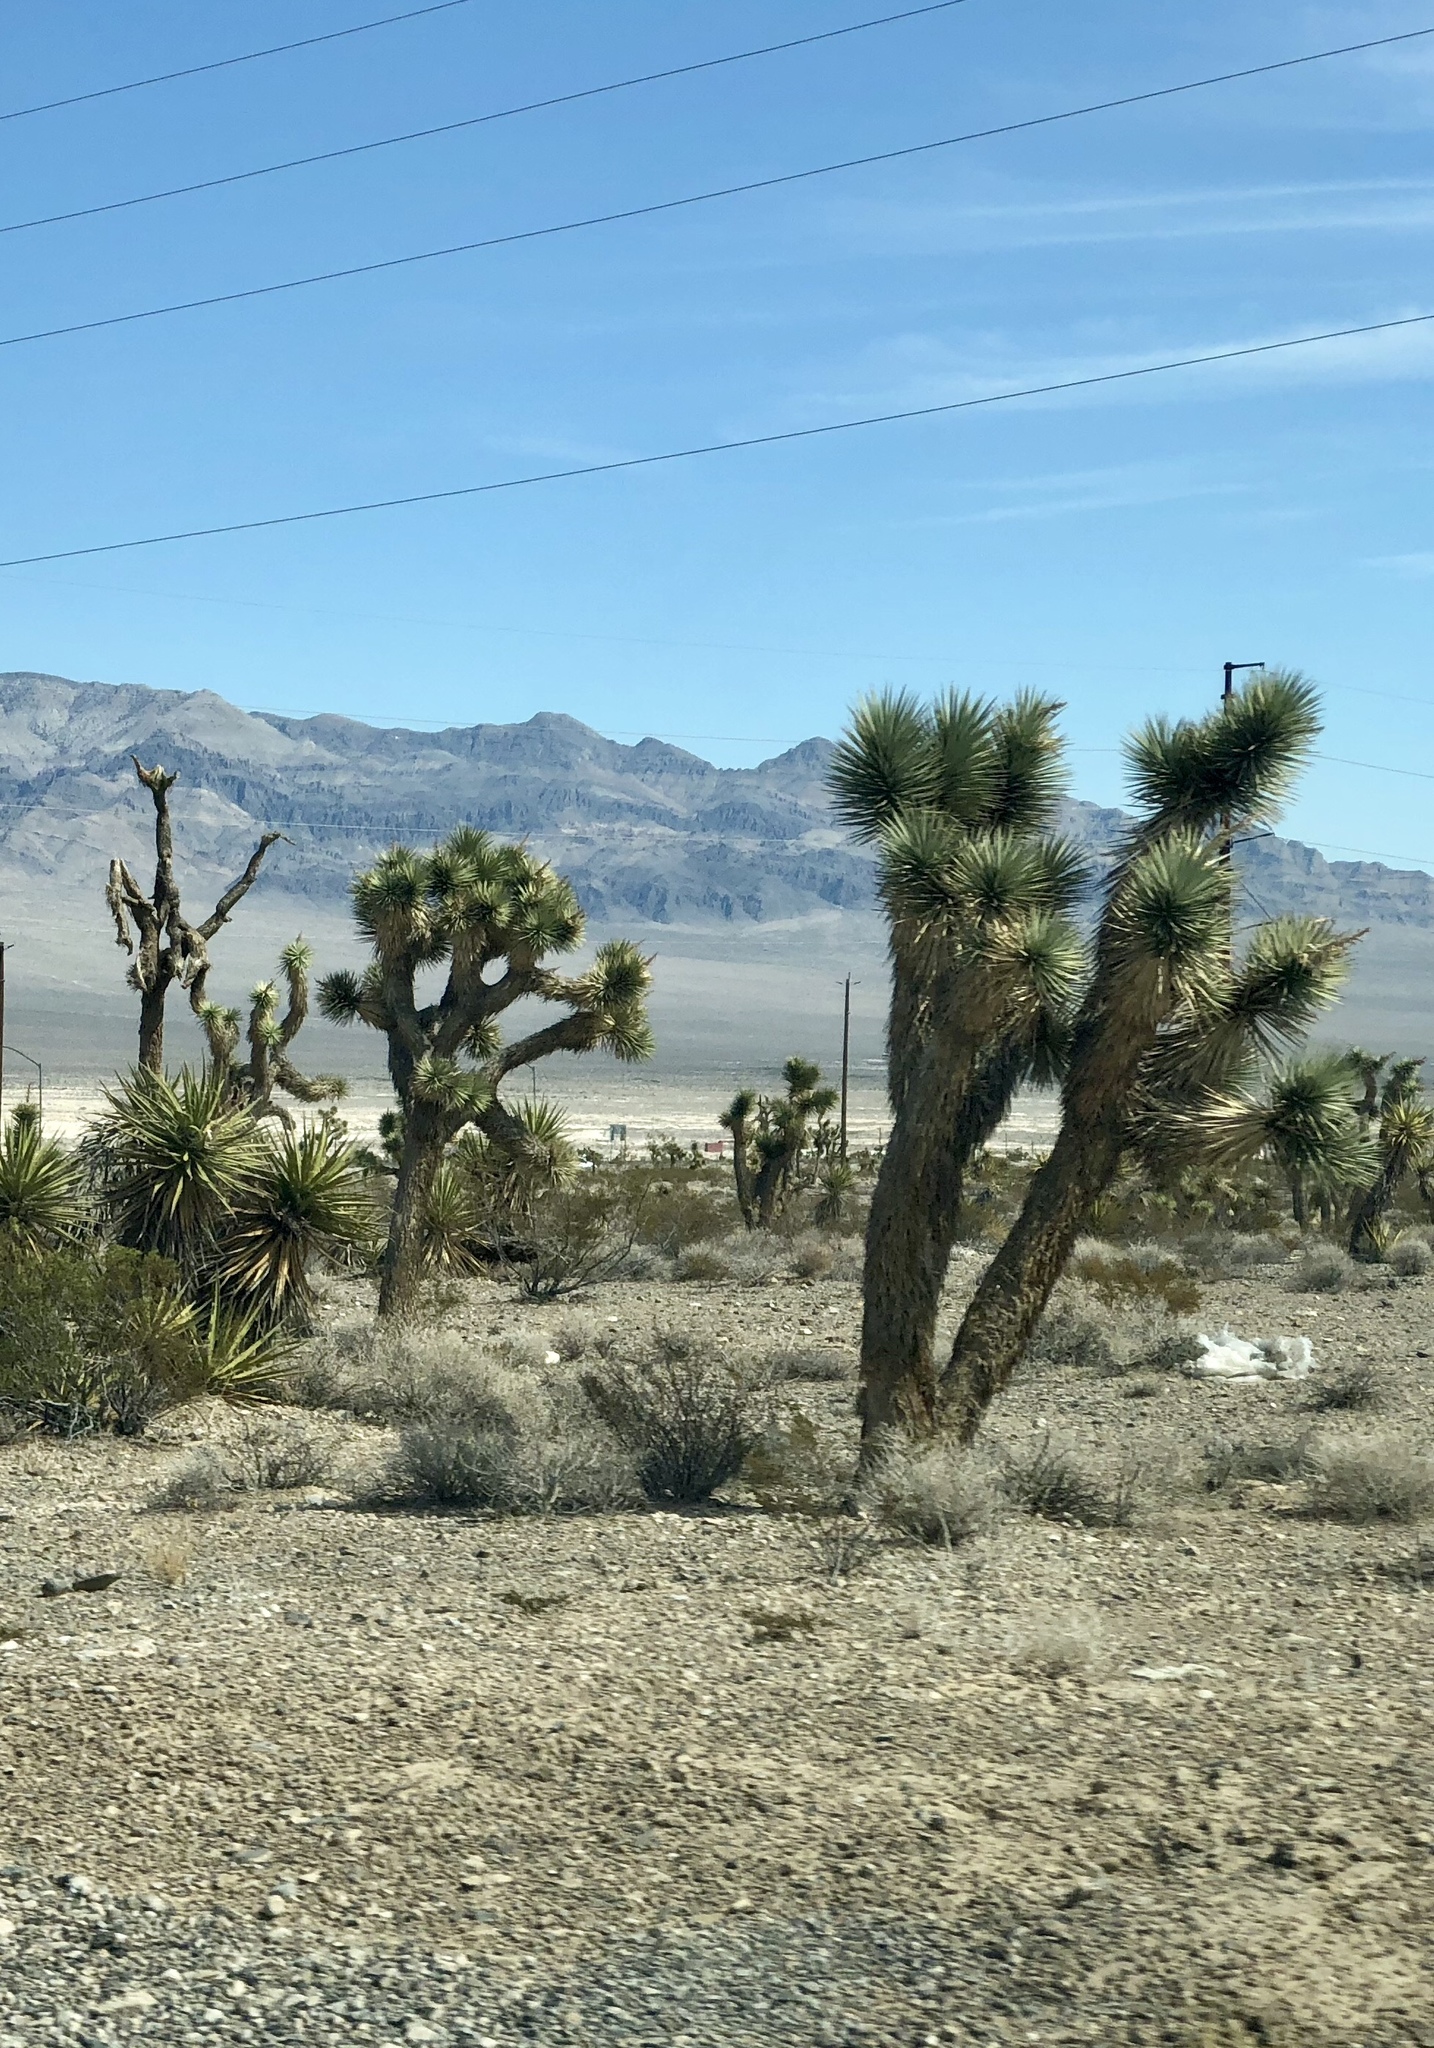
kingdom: Plantae
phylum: Tracheophyta
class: Liliopsida
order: Asparagales
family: Asparagaceae
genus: Yucca
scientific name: Yucca brevifolia
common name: Joshua tree
